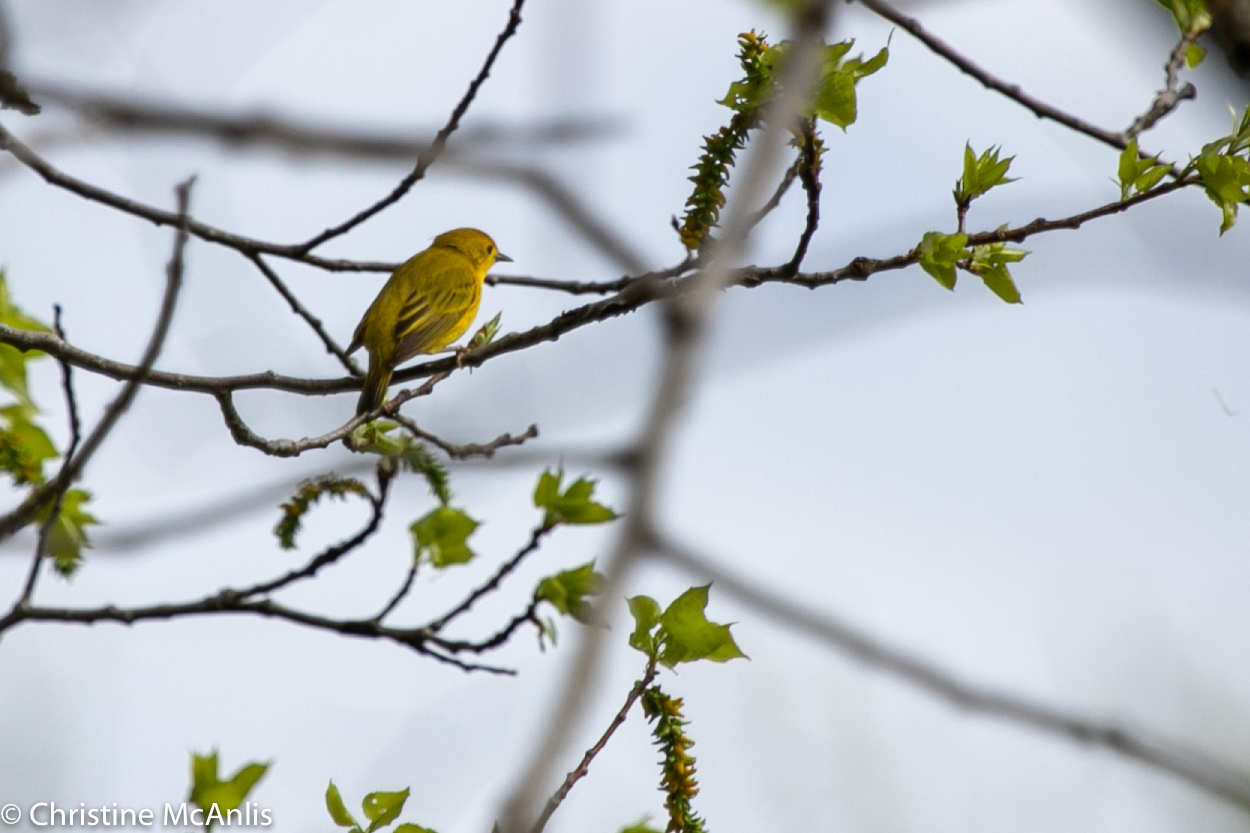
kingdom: Animalia
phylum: Chordata
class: Aves
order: Passeriformes
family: Parulidae
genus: Setophaga
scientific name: Setophaga petechia
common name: Yellow warbler
